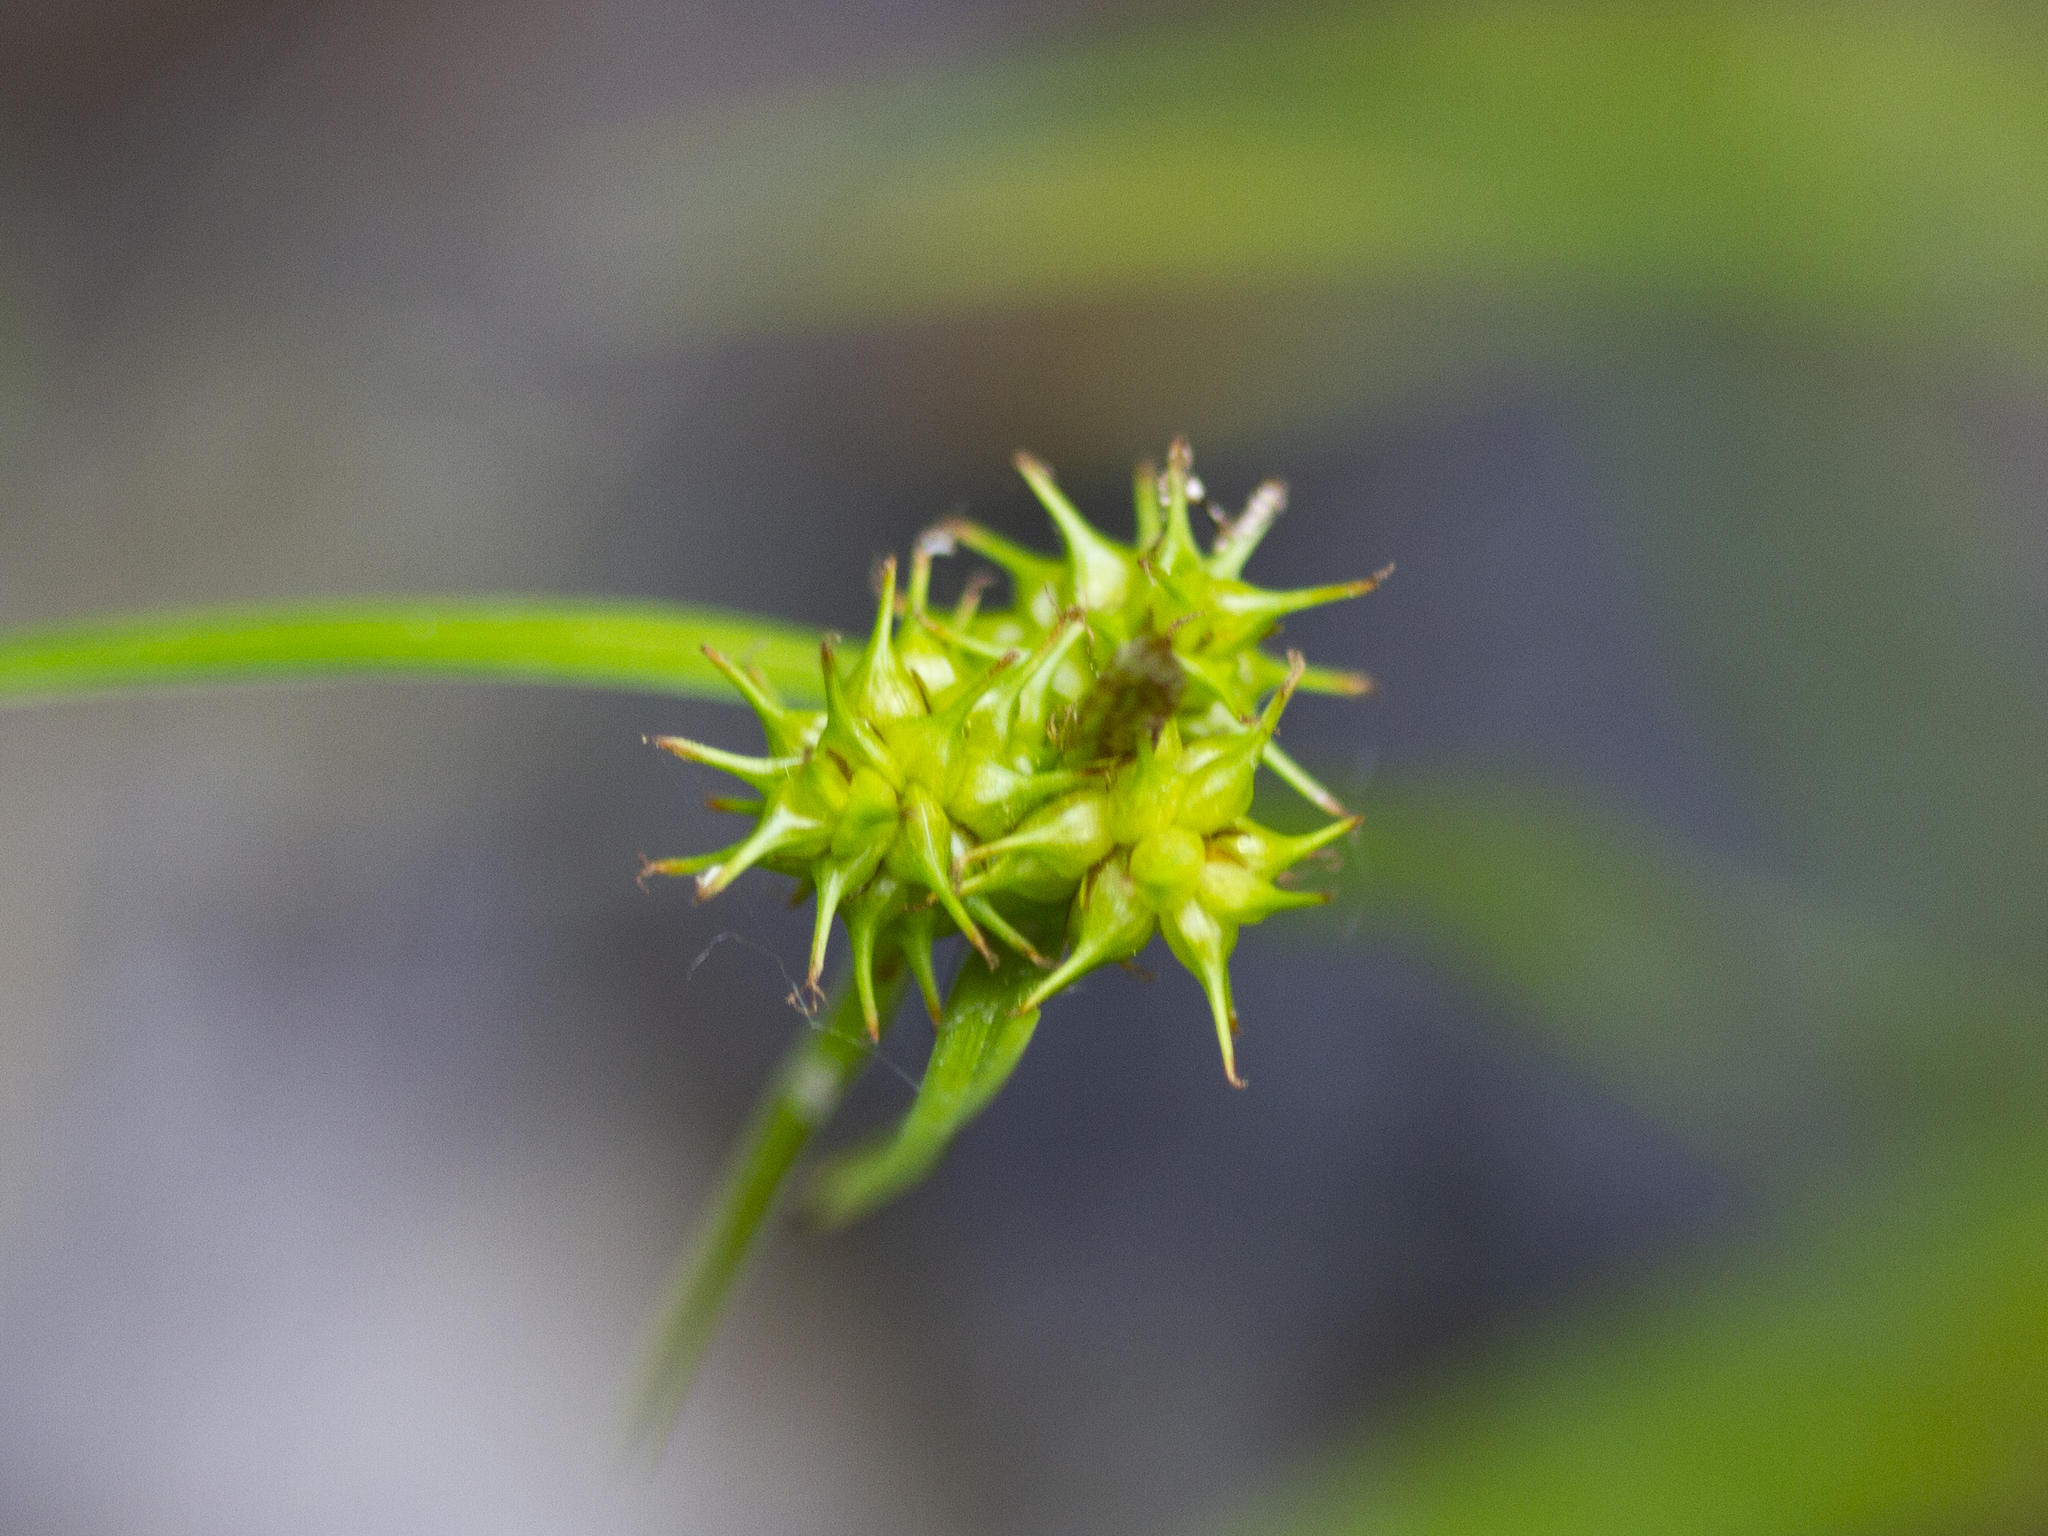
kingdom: Plantae
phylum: Tracheophyta
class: Liliopsida
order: Poales
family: Cyperaceae
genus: Carex
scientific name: Carex flava
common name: Large yellow-sedge
